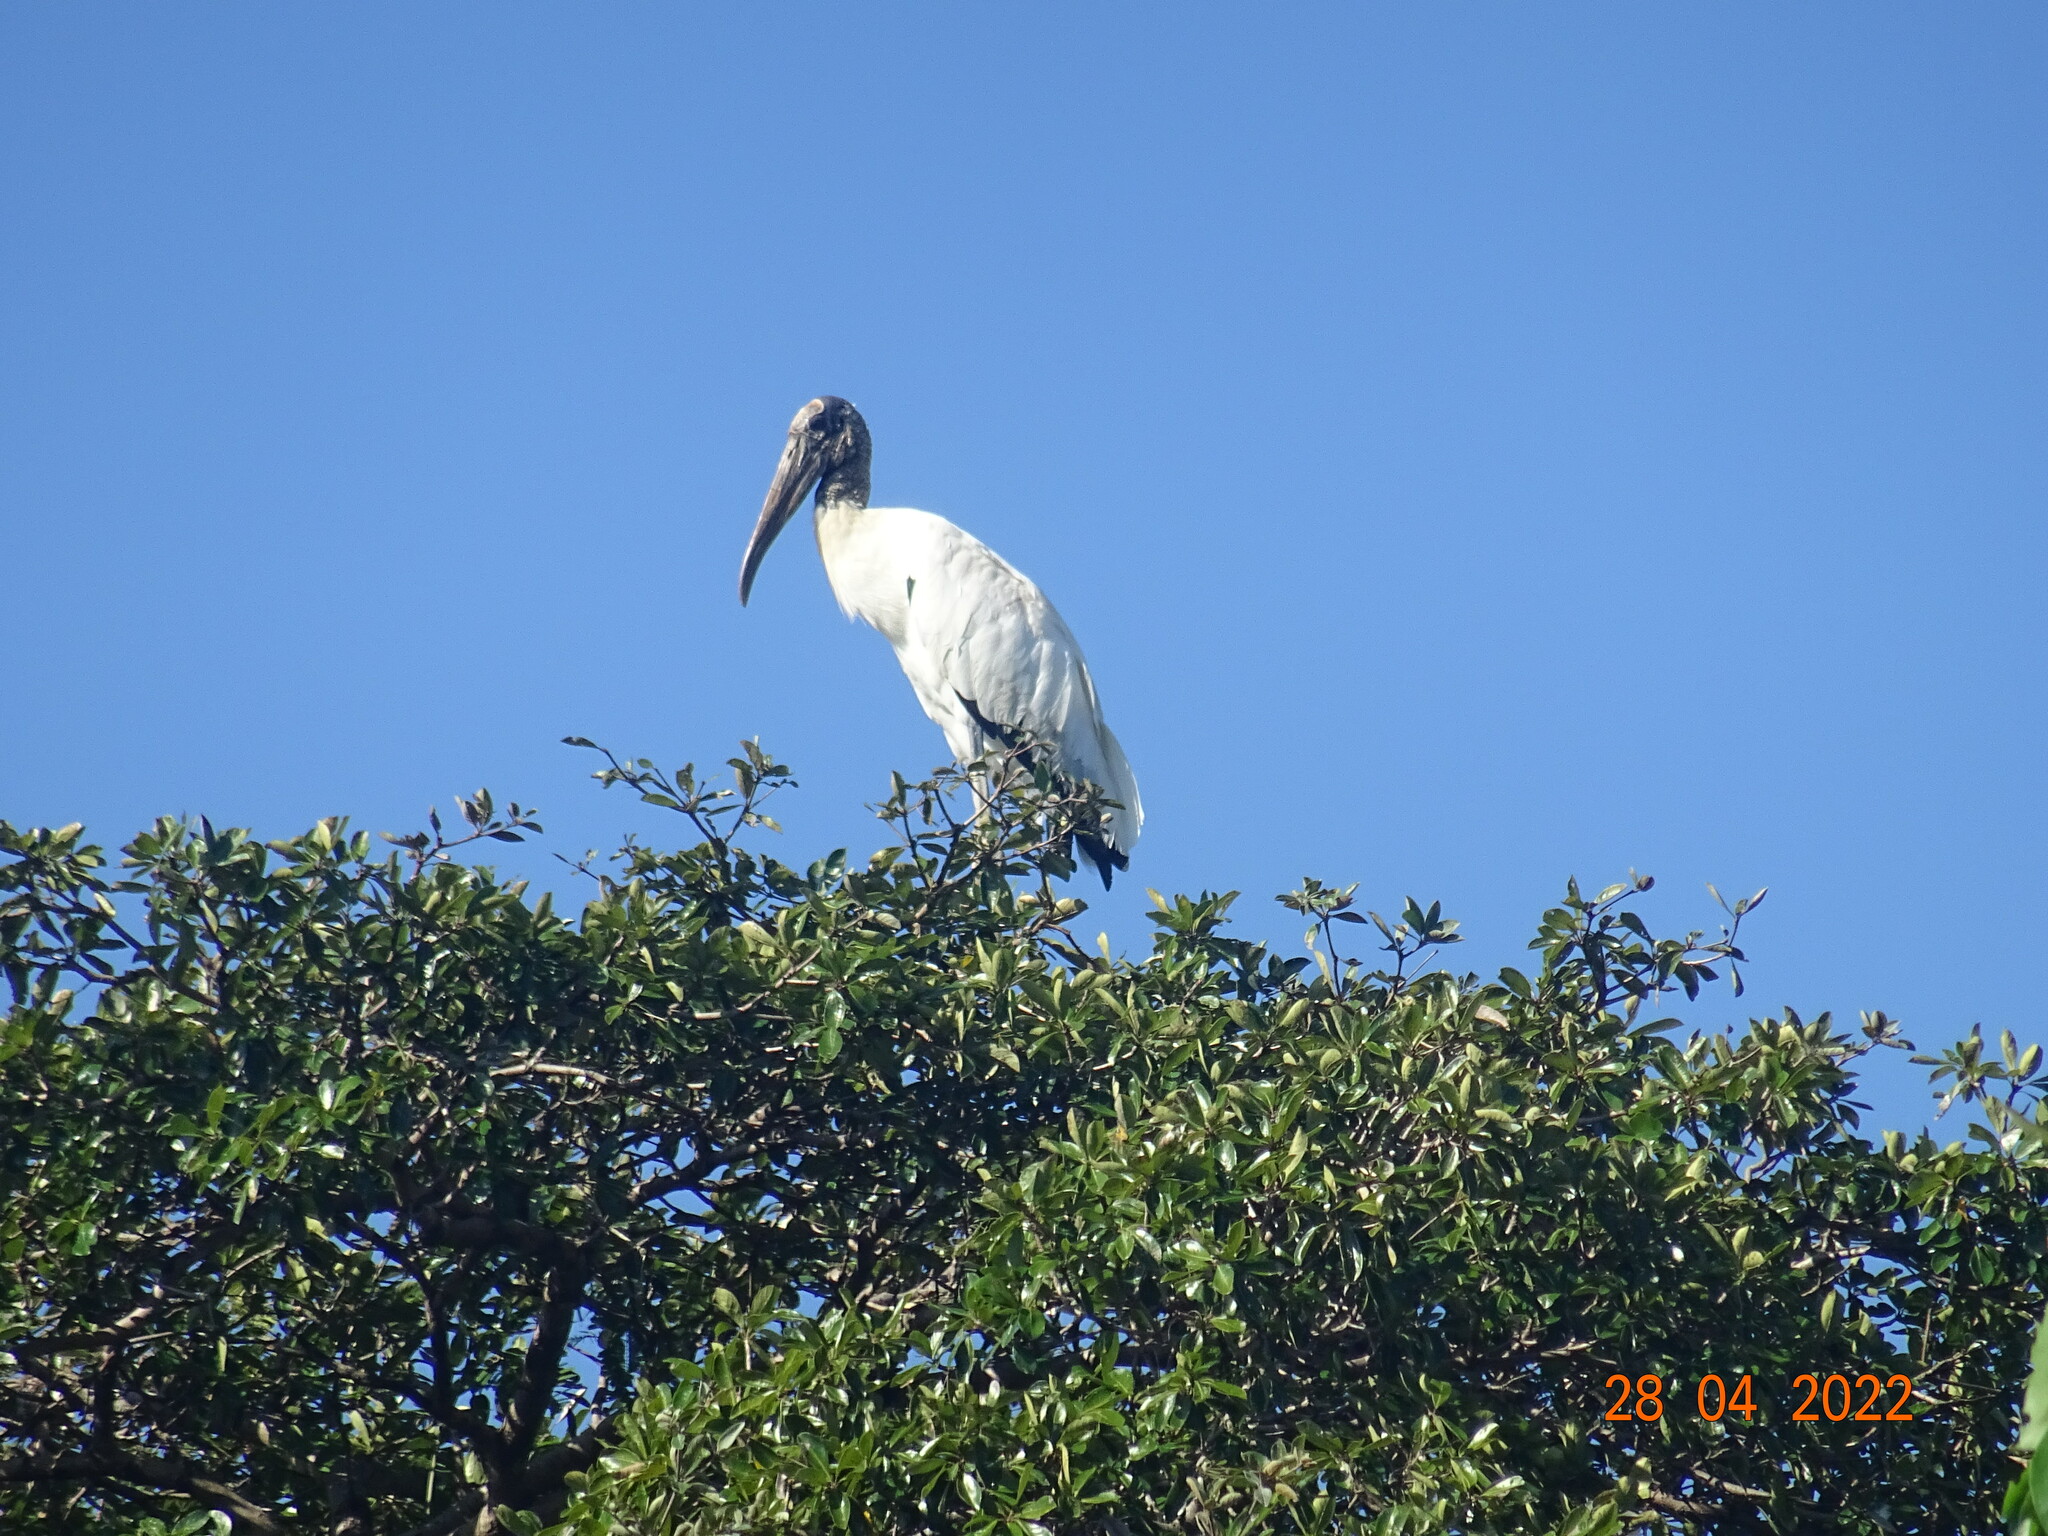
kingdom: Animalia
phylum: Chordata
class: Aves
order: Ciconiiformes
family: Ciconiidae
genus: Mycteria
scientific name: Mycteria americana
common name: Wood stork
